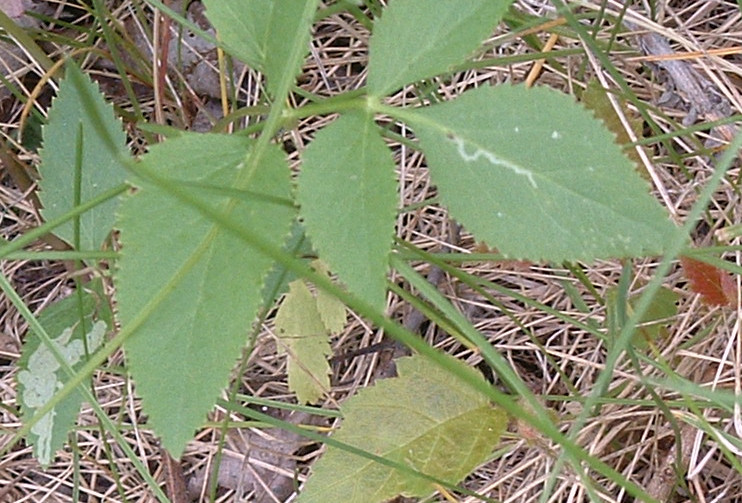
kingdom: Plantae
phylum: Tracheophyta
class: Magnoliopsida
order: Apiales
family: Apiaceae
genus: Zizia
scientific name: Zizia aurea
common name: Golden alexanders
